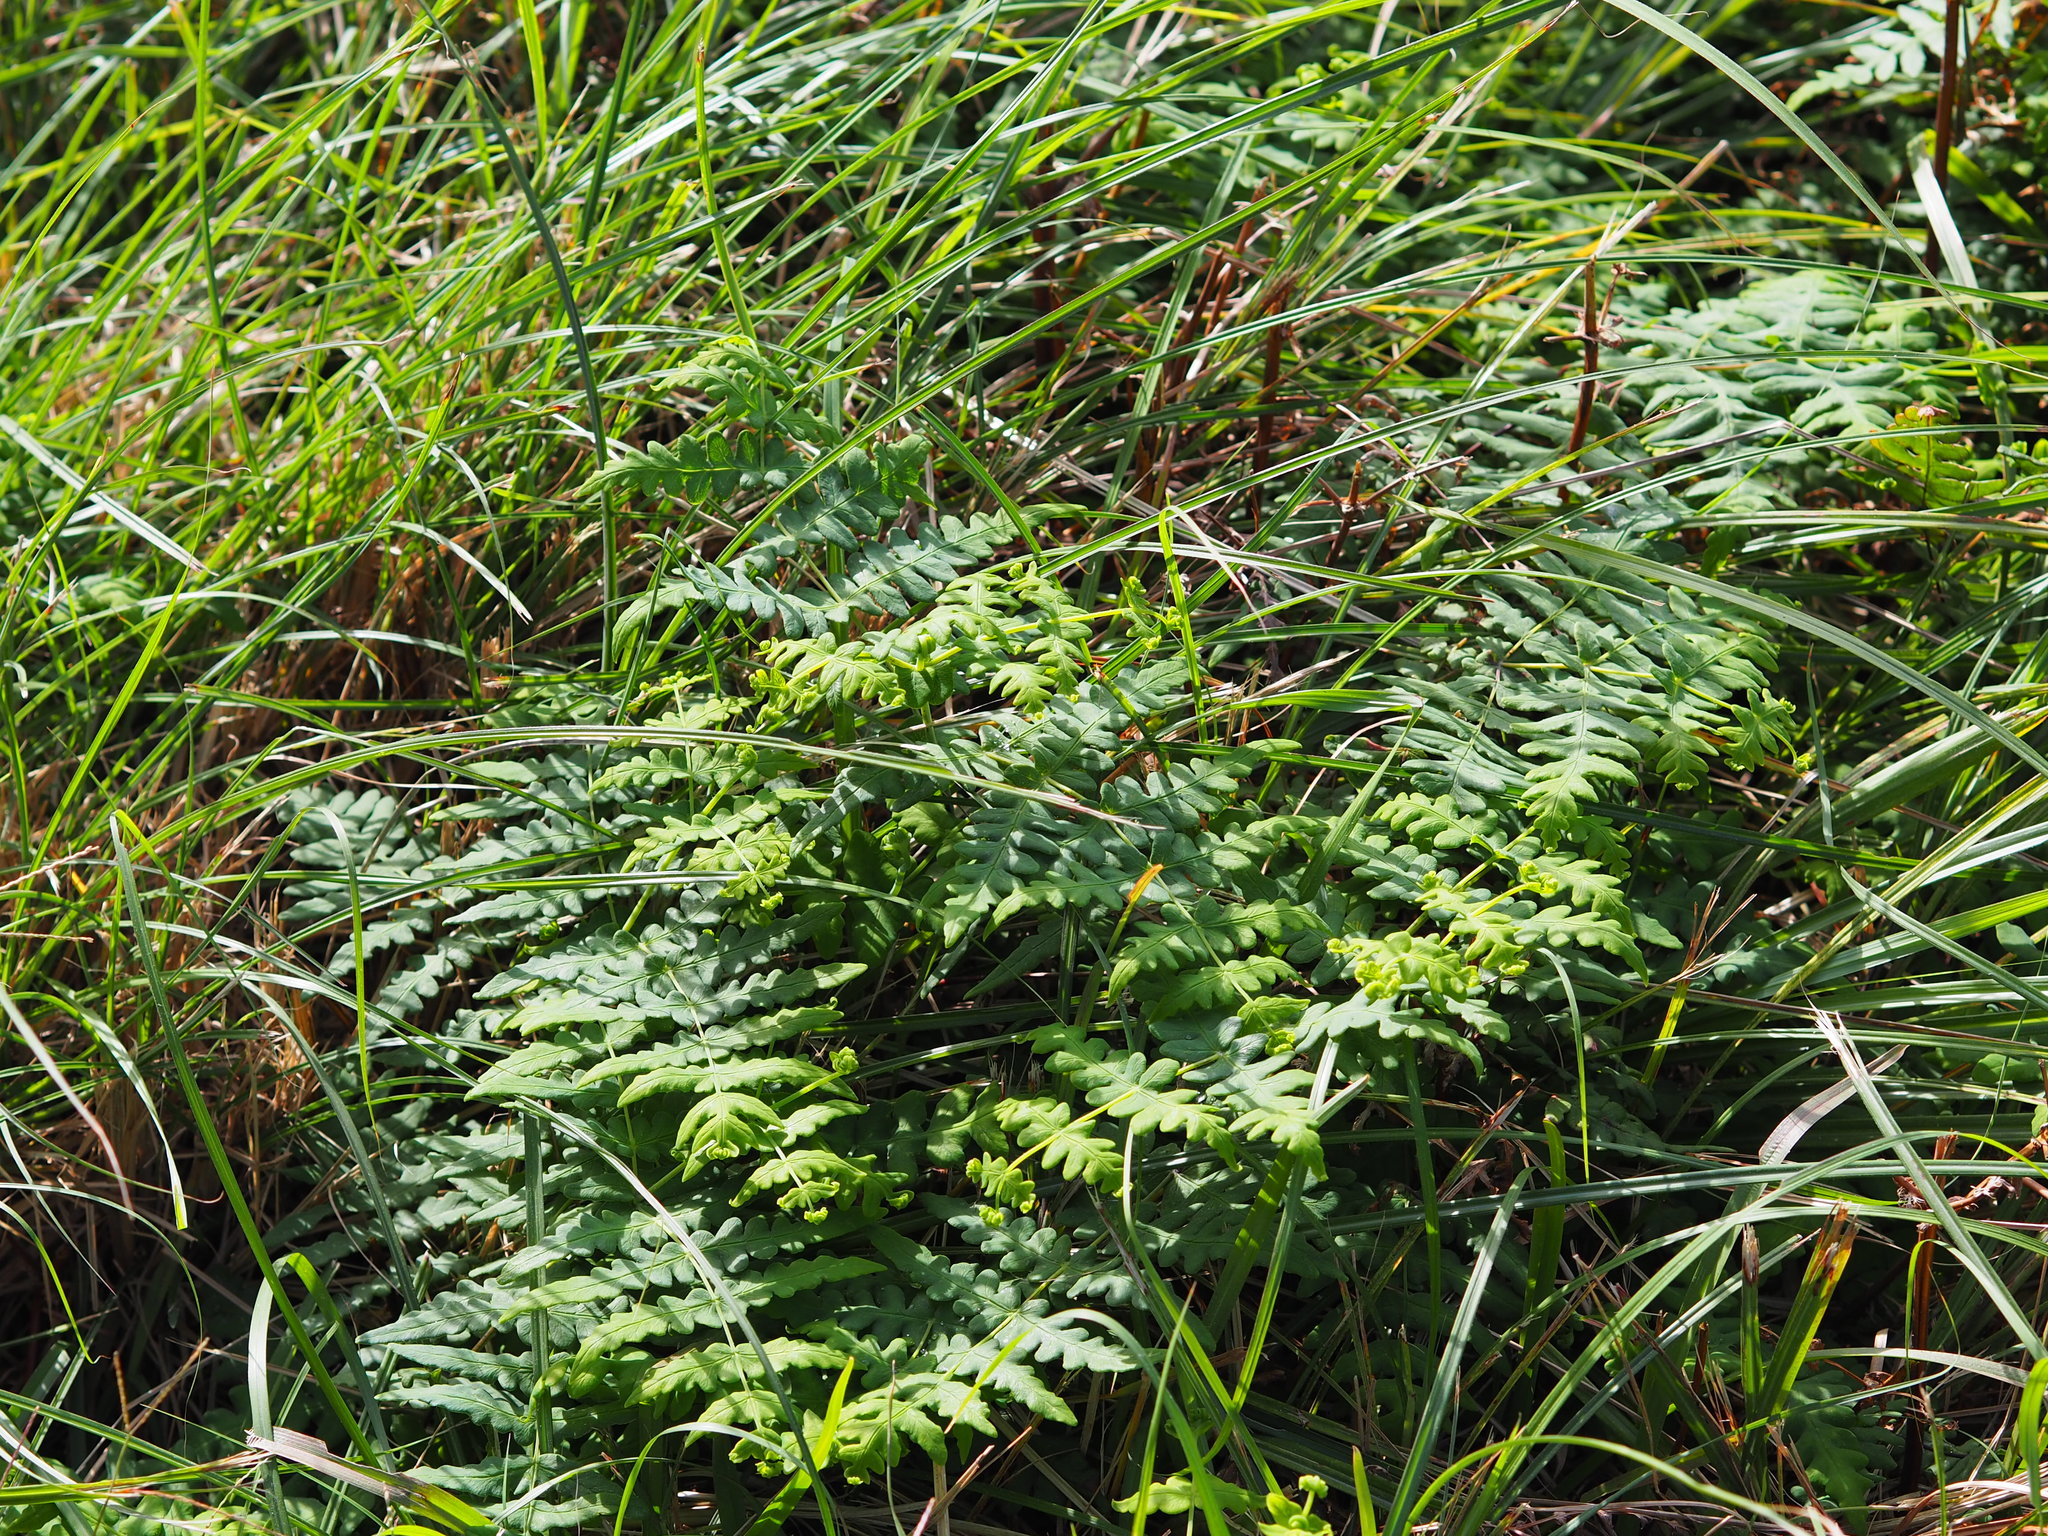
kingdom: Plantae
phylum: Tracheophyta
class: Polypodiopsida
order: Polypodiales
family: Dennstaedtiaceae
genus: Histiopteris
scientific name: Histiopteris incisa
